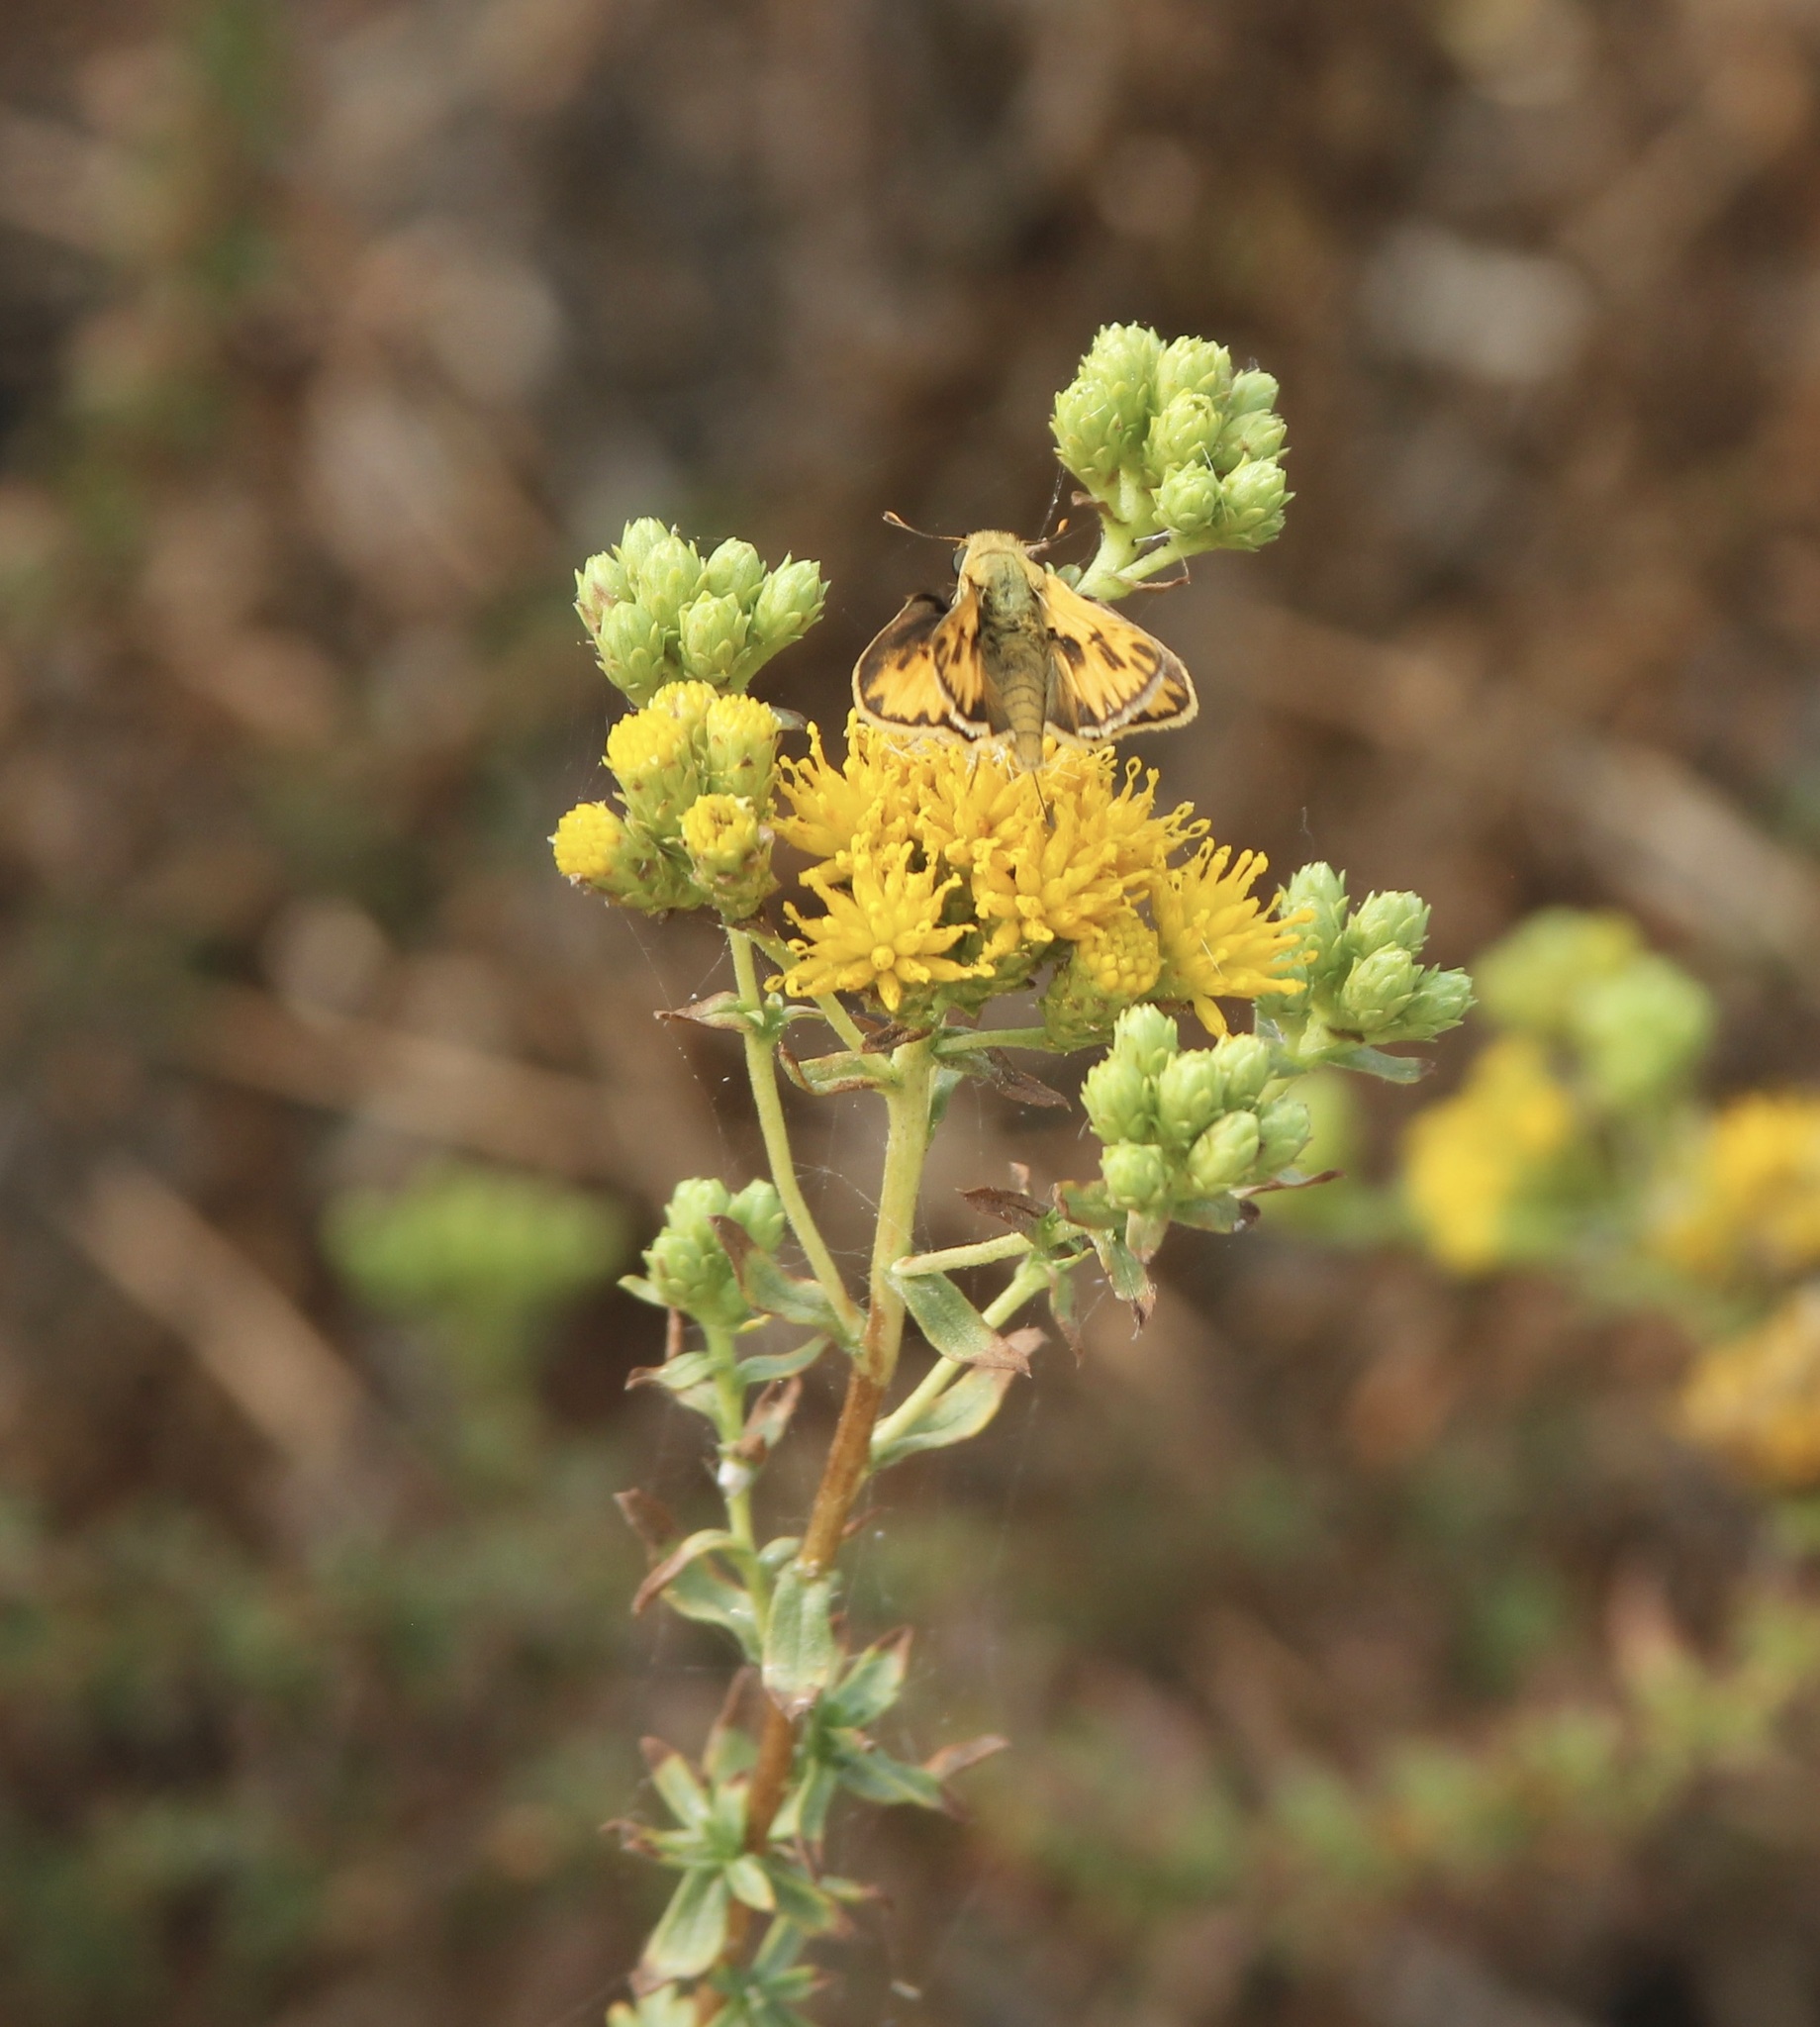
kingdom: Animalia
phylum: Arthropoda
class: Insecta
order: Lepidoptera
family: Hesperiidae
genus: Hylephila
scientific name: Hylephila phyleus
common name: Fiery skipper
